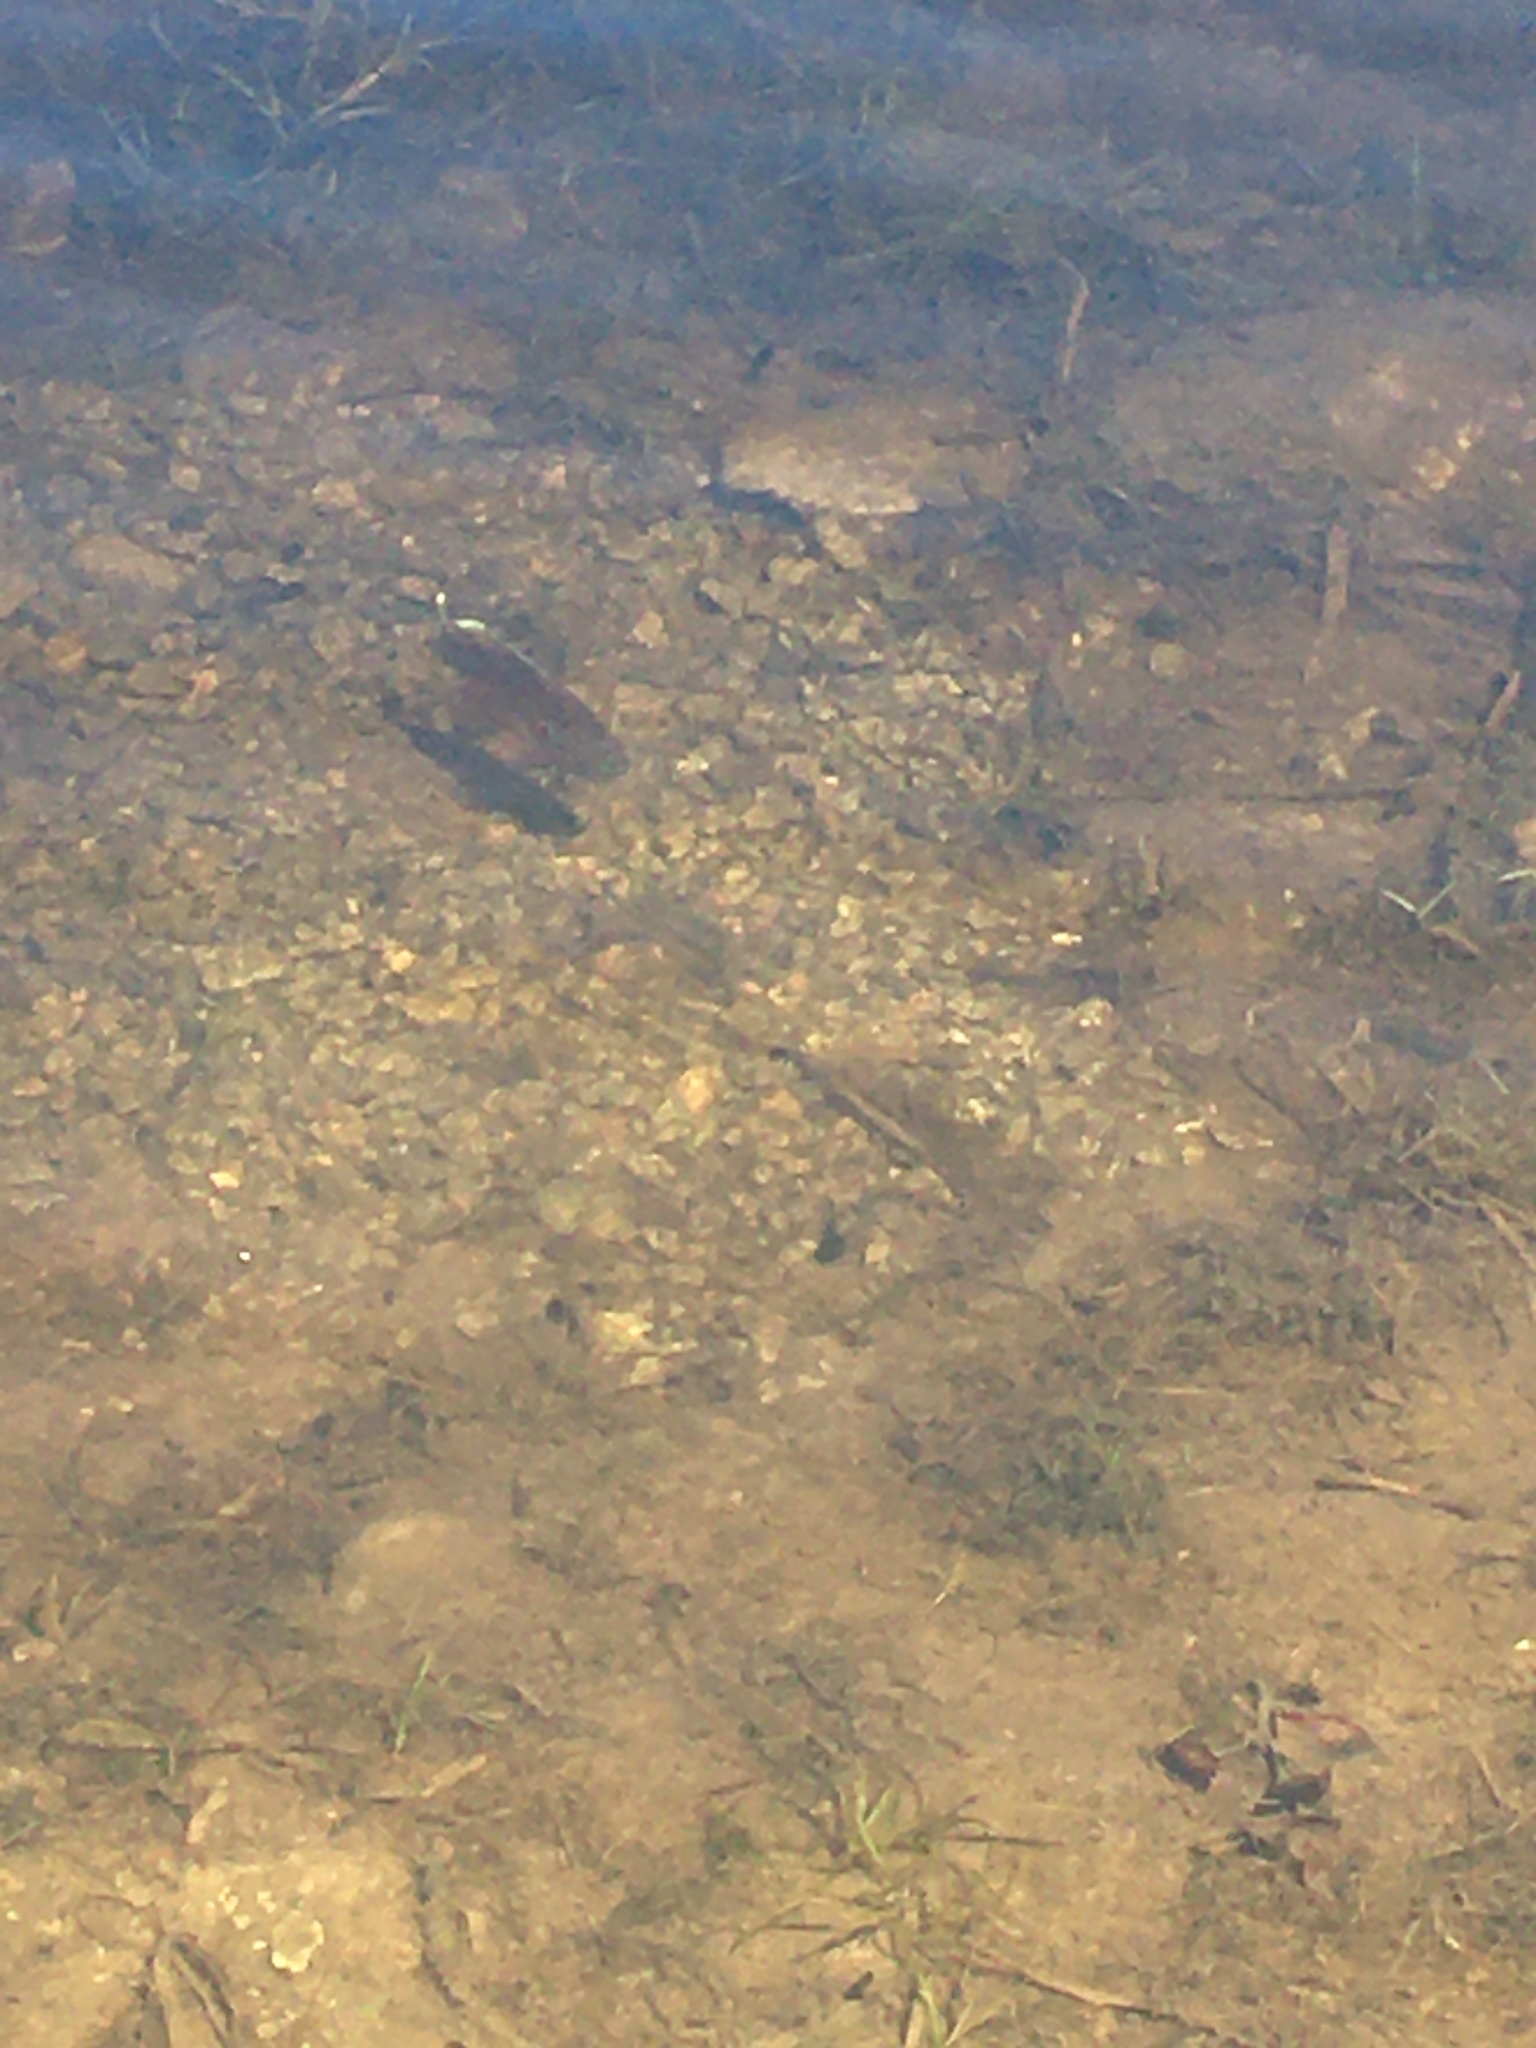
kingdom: Animalia
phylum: Chordata
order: Perciformes
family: Centrarchidae
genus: Lepomis
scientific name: Lepomis gibbosus
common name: Pumpkinseed
